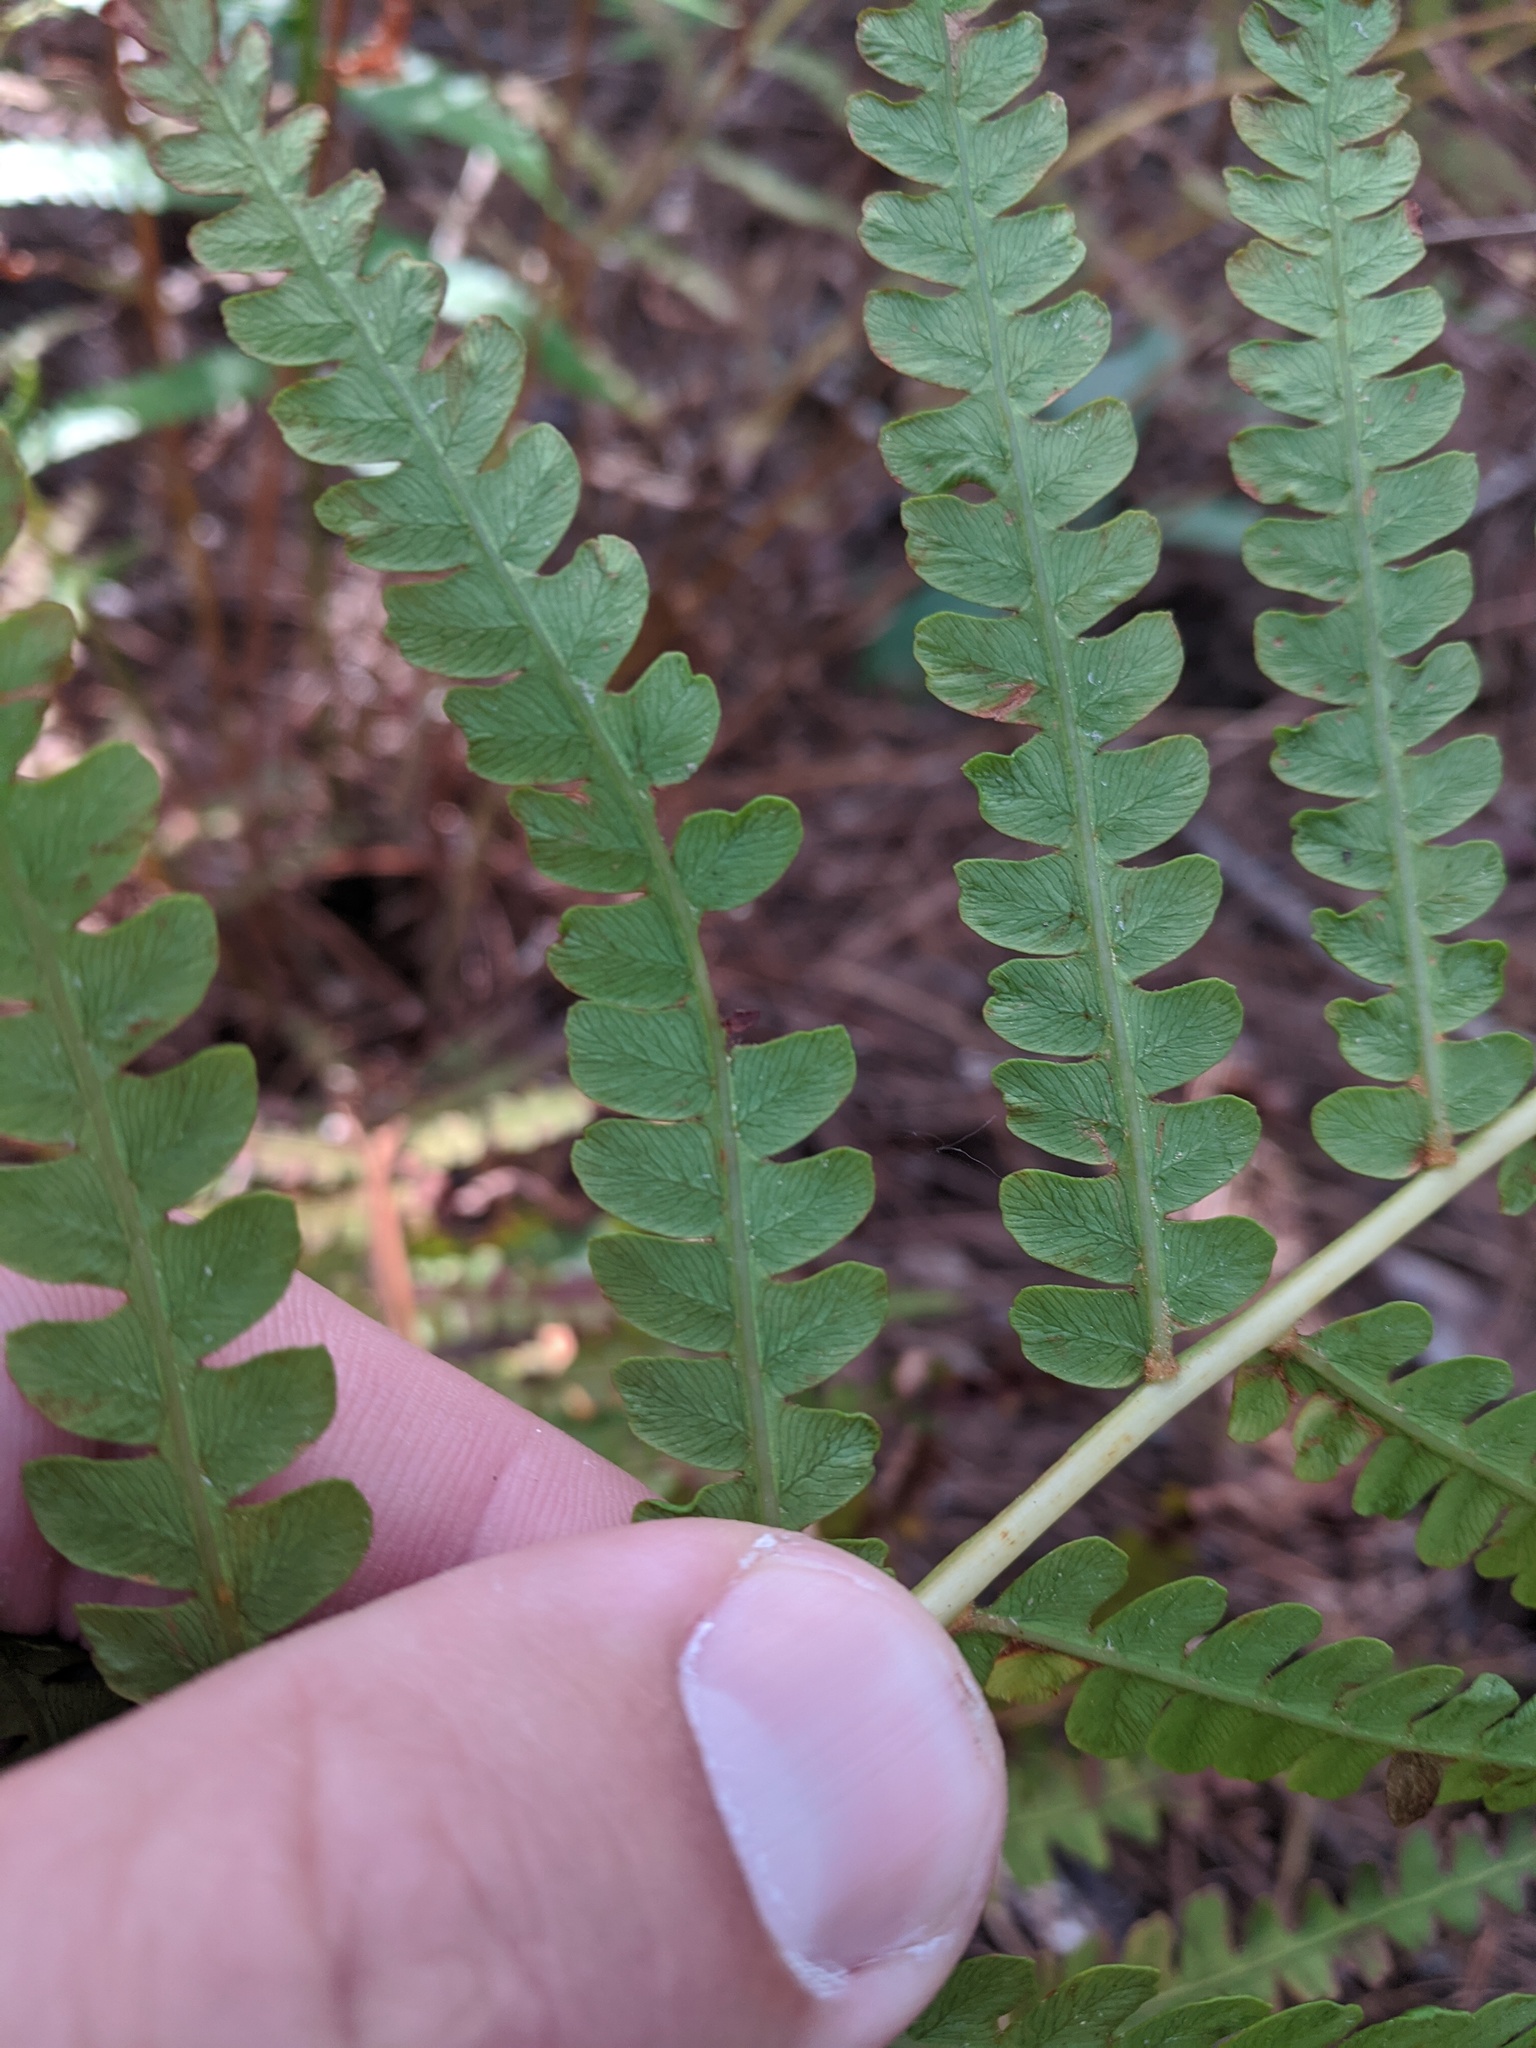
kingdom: Plantae
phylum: Tracheophyta
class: Polypodiopsida
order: Osmundales
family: Osmundaceae
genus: Osmundastrum
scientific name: Osmundastrum cinnamomeum
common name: Cinnamon fern
